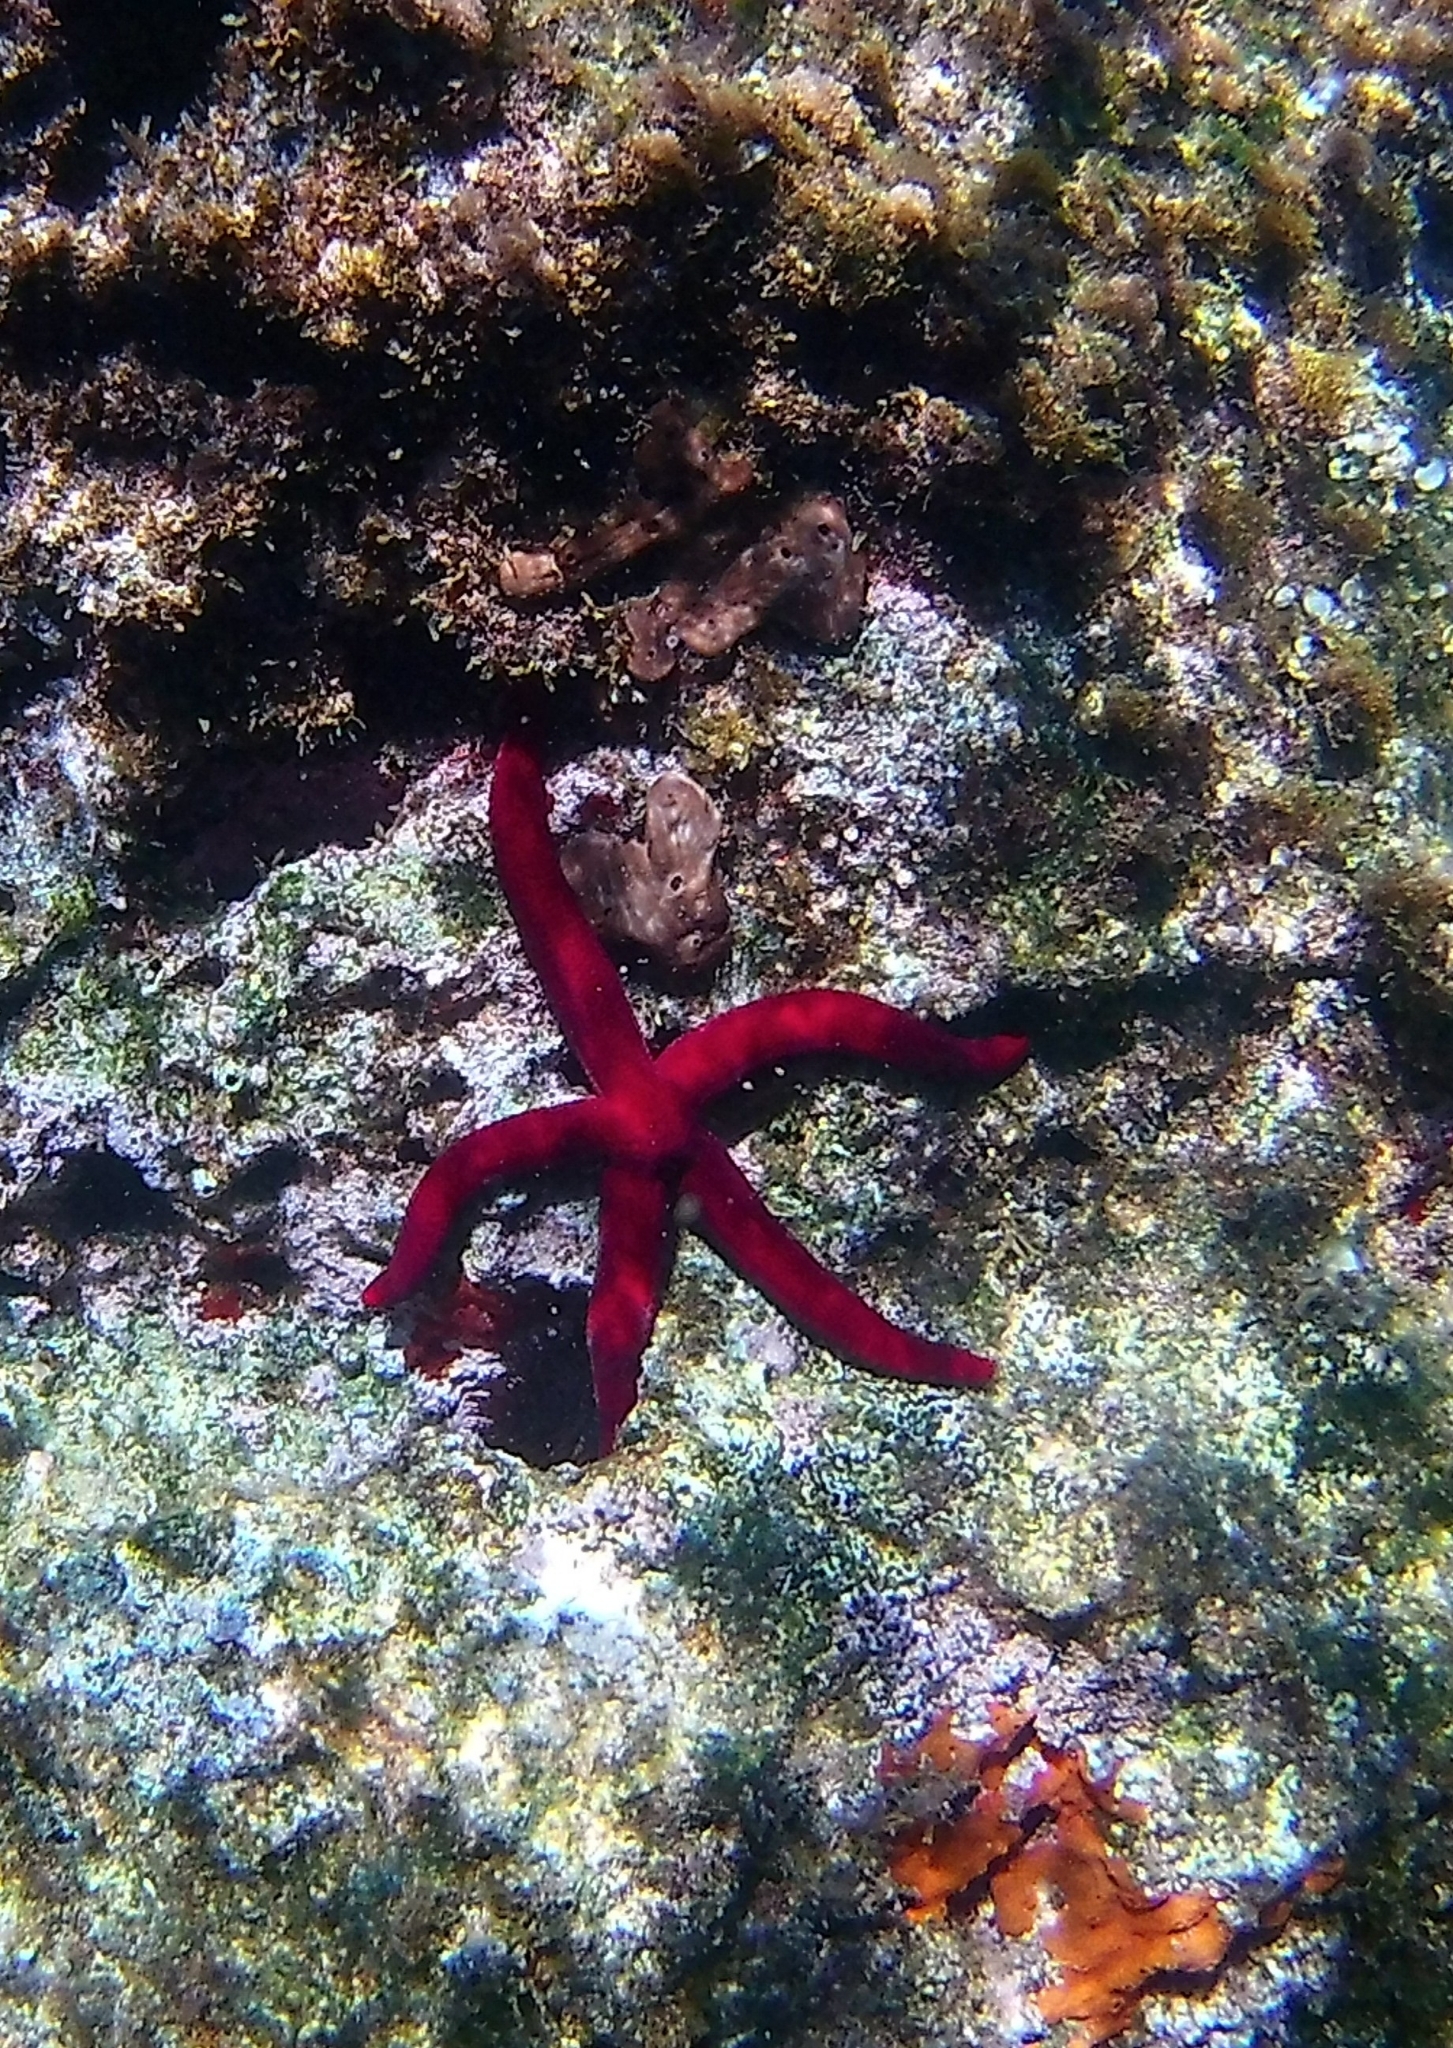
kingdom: Animalia
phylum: Echinodermata
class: Asteroidea
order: Valvatida
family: Ophidiasteridae
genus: Ophidiaster
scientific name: Ophidiaster ophidianus
